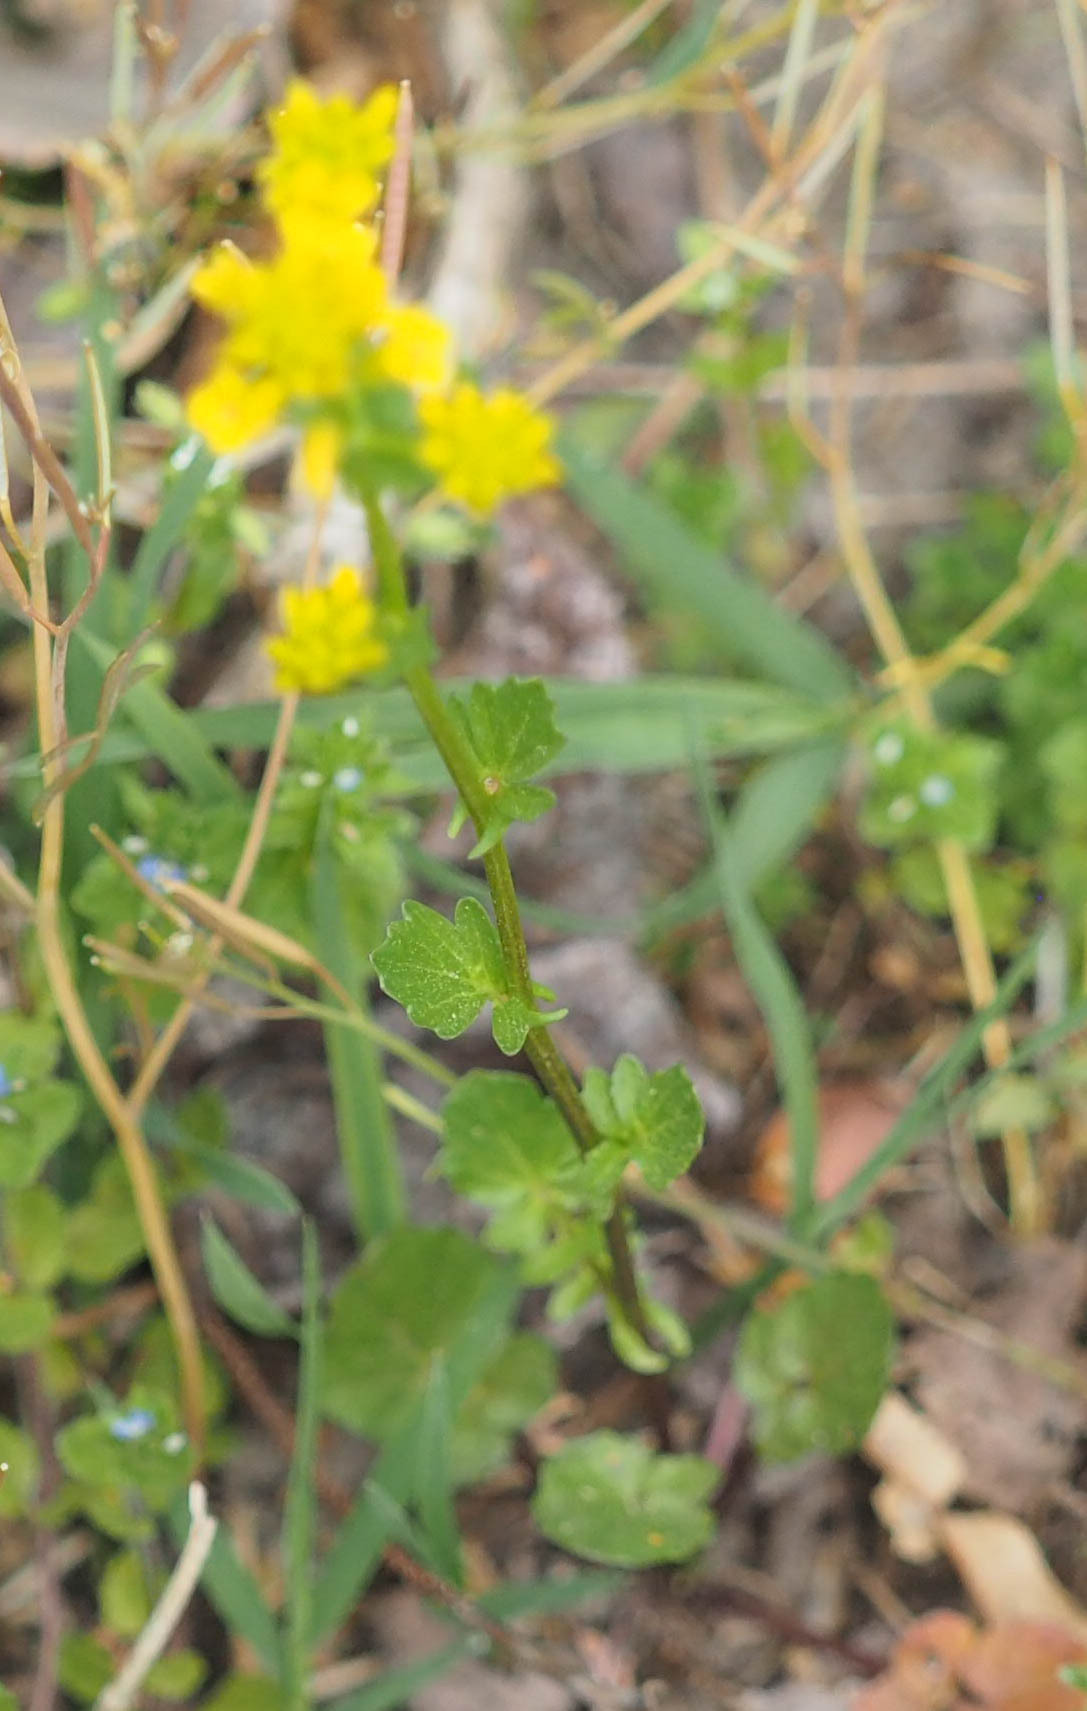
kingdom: Plantae
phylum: Tracheophyta
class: Magnoliopsida
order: Brassicales
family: Brassicaceae
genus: Barbarea
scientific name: Barbarea vulgaris
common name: Cressy-greens
